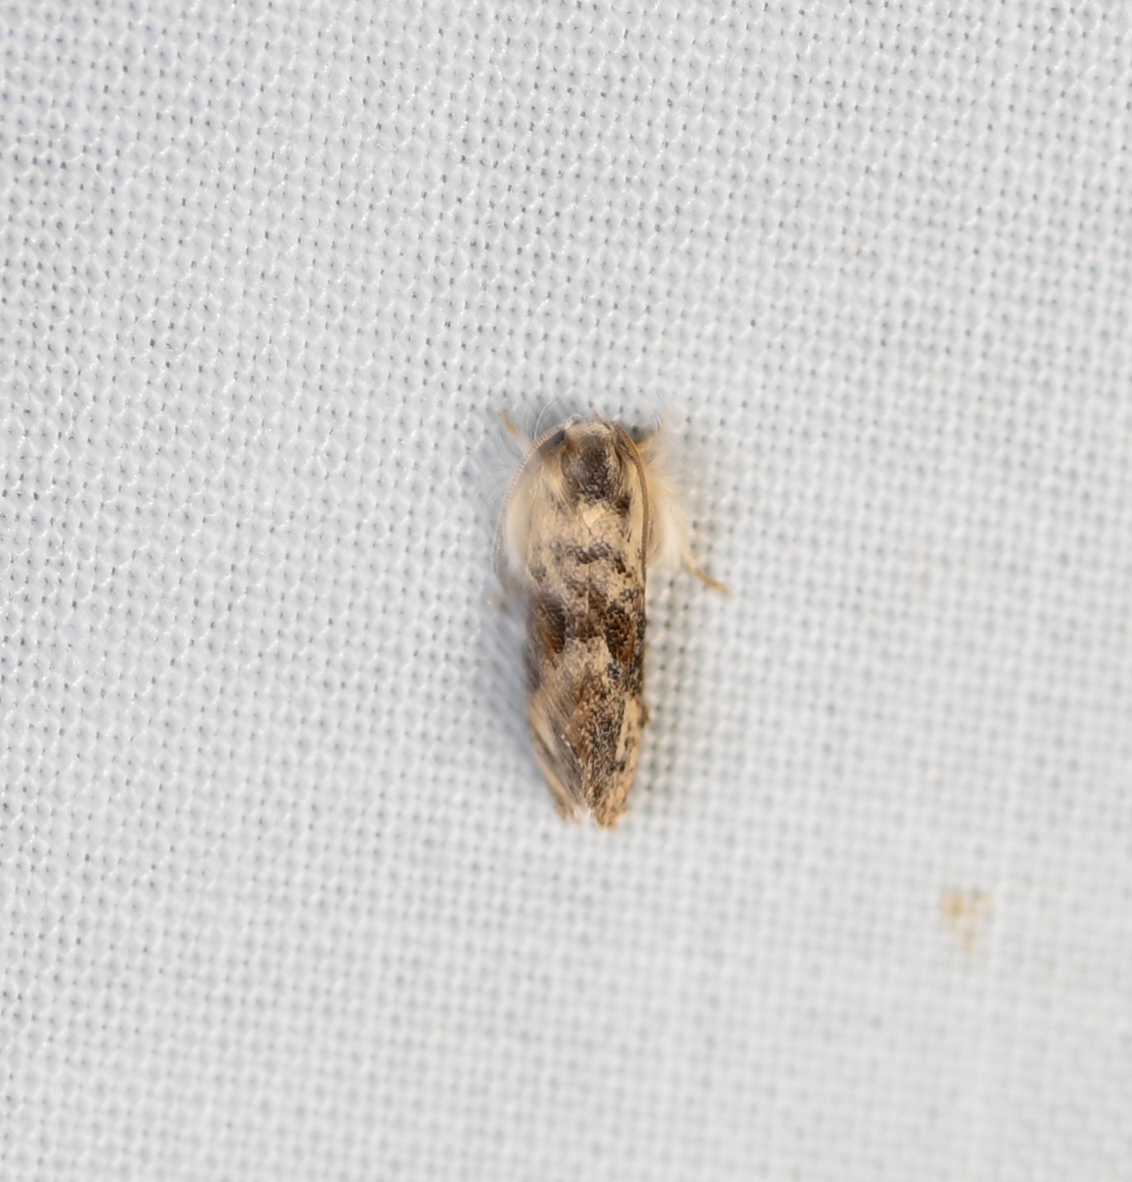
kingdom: Animalia
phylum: Arthropoda
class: Insecta
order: Lepidoptera
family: Tineidae
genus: Acrolophus
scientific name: Acrolophus mycetophagus
